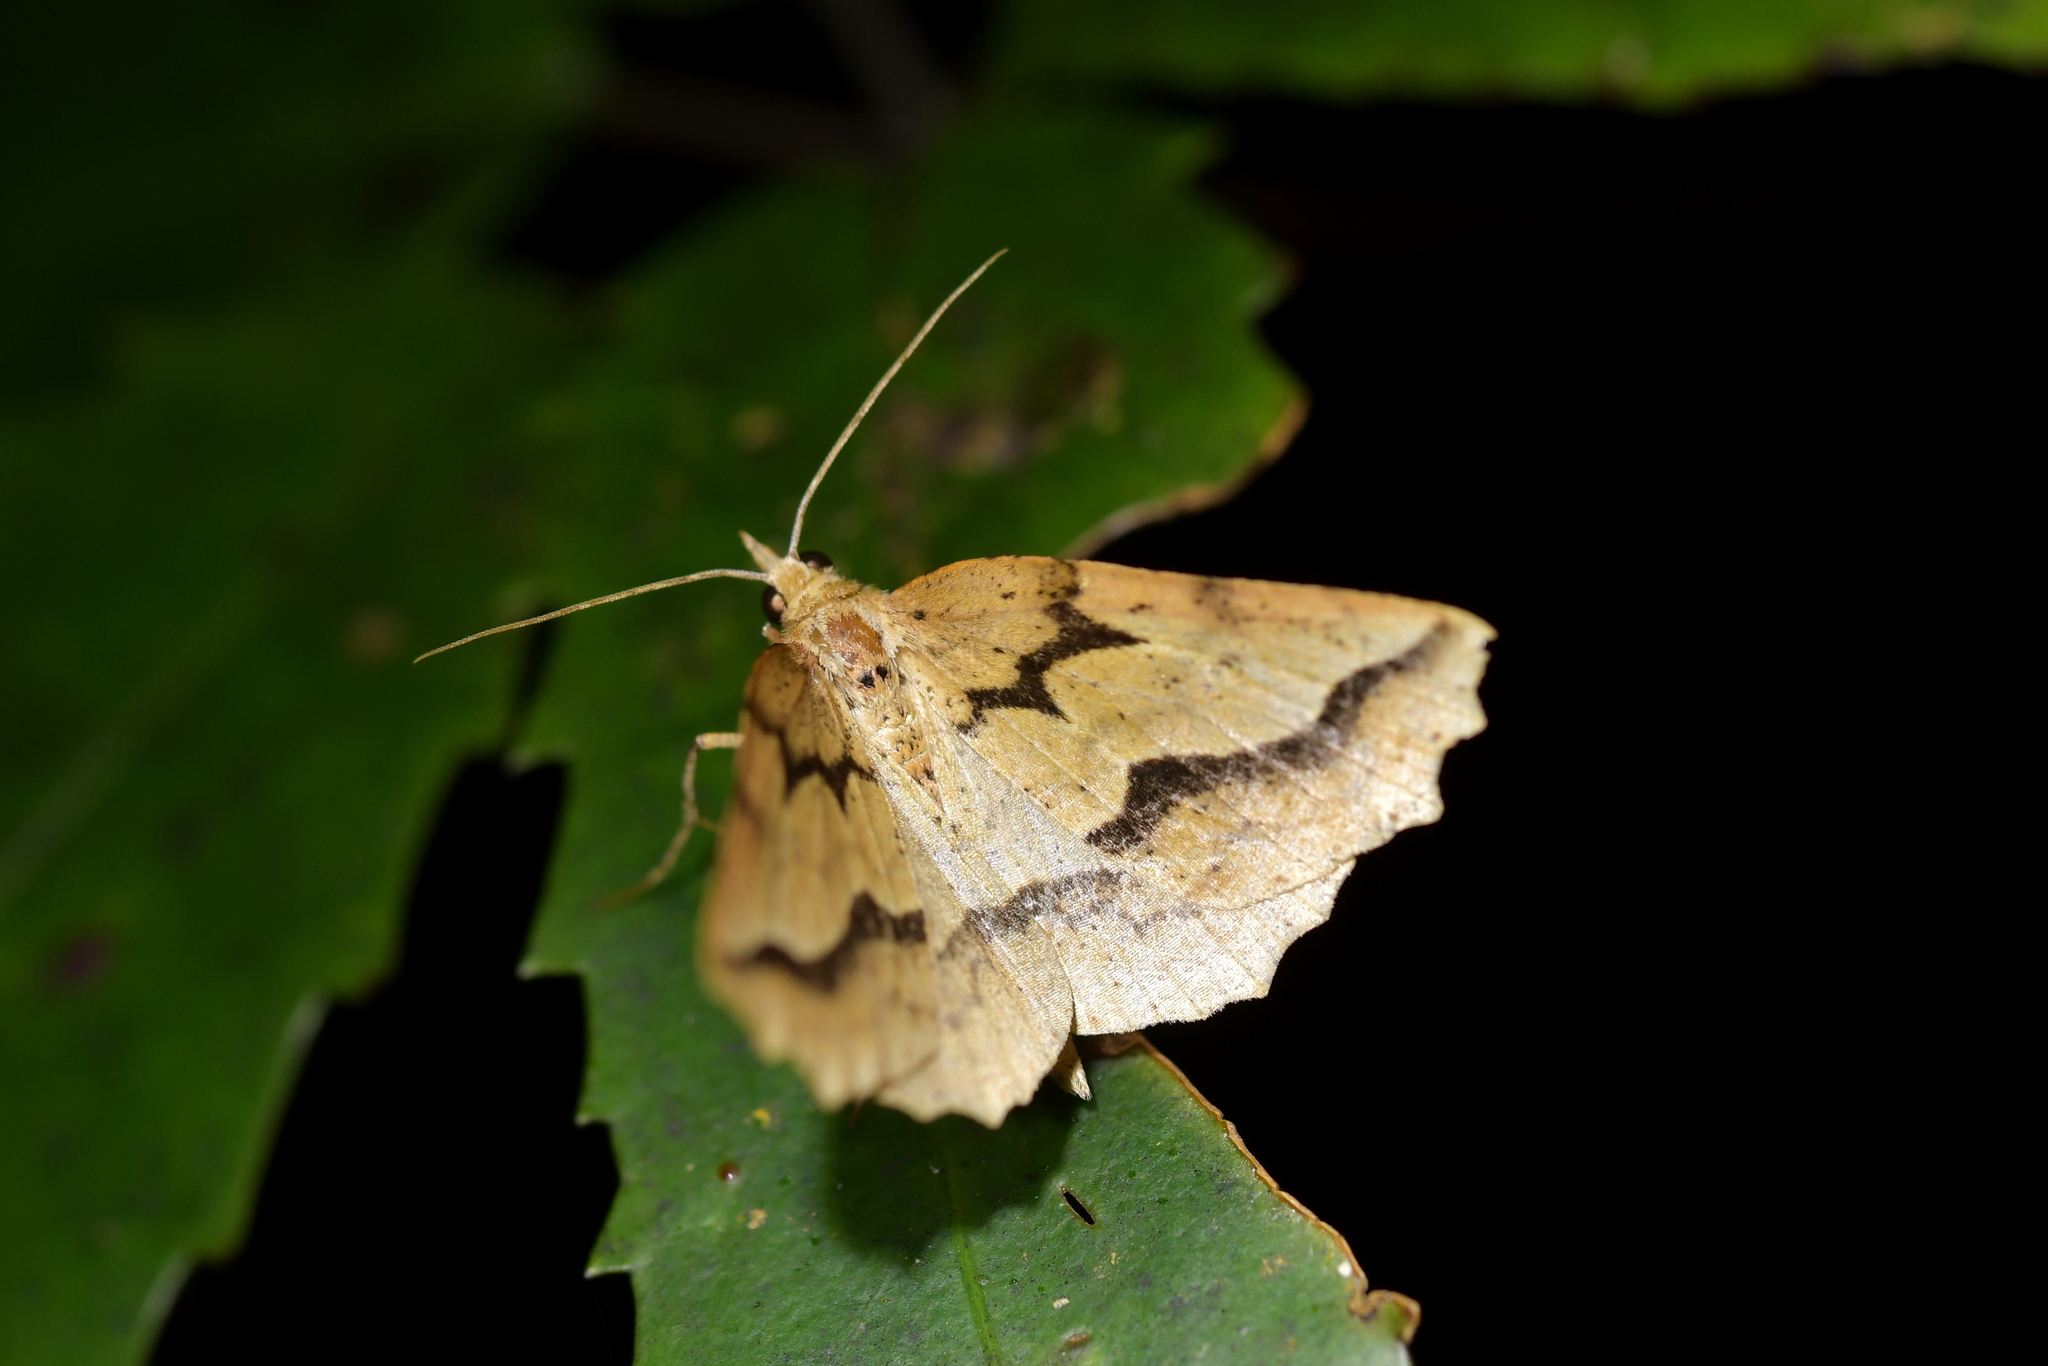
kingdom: Animalia
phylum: Arthropoda
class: Insecta
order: Lepidoptera
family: Geometridae
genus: Ischalis
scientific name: Ischalis variabilis
